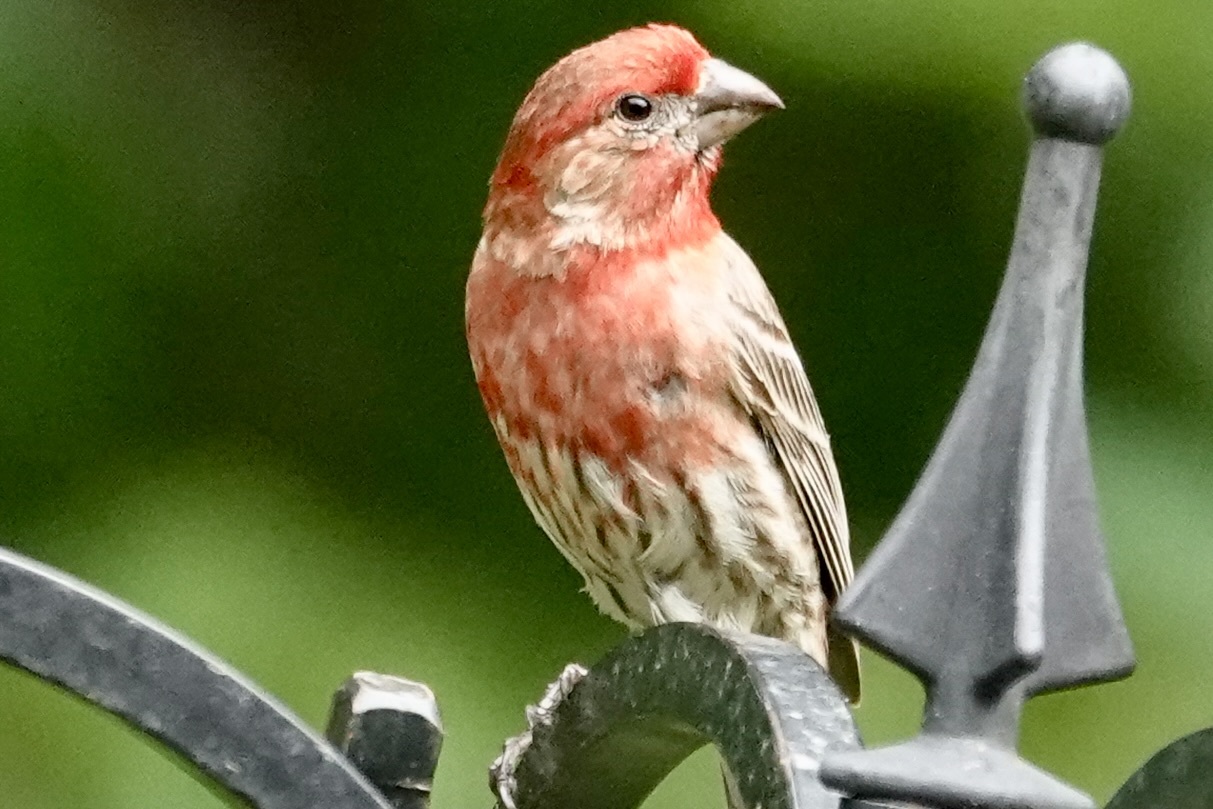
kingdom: Animalia
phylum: Chordata
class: Aves
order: Passeriformes
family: Fringillidae
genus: Haemorhous
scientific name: Haemorhous mexicanus
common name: House finch
